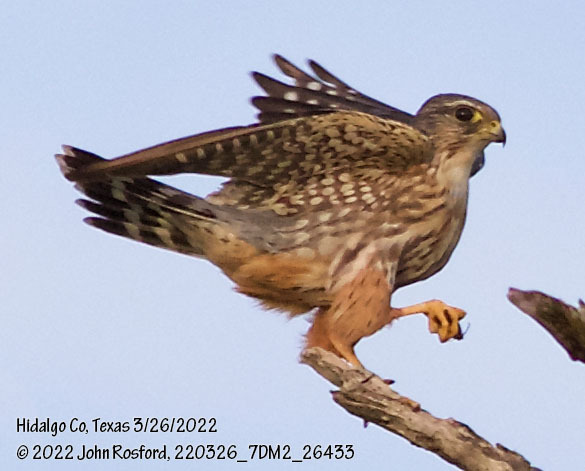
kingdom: Animalia
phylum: Chordata
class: Aves
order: Falconiformes
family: Falconidae
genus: Falco
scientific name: Falco columbarius
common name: Merlin
